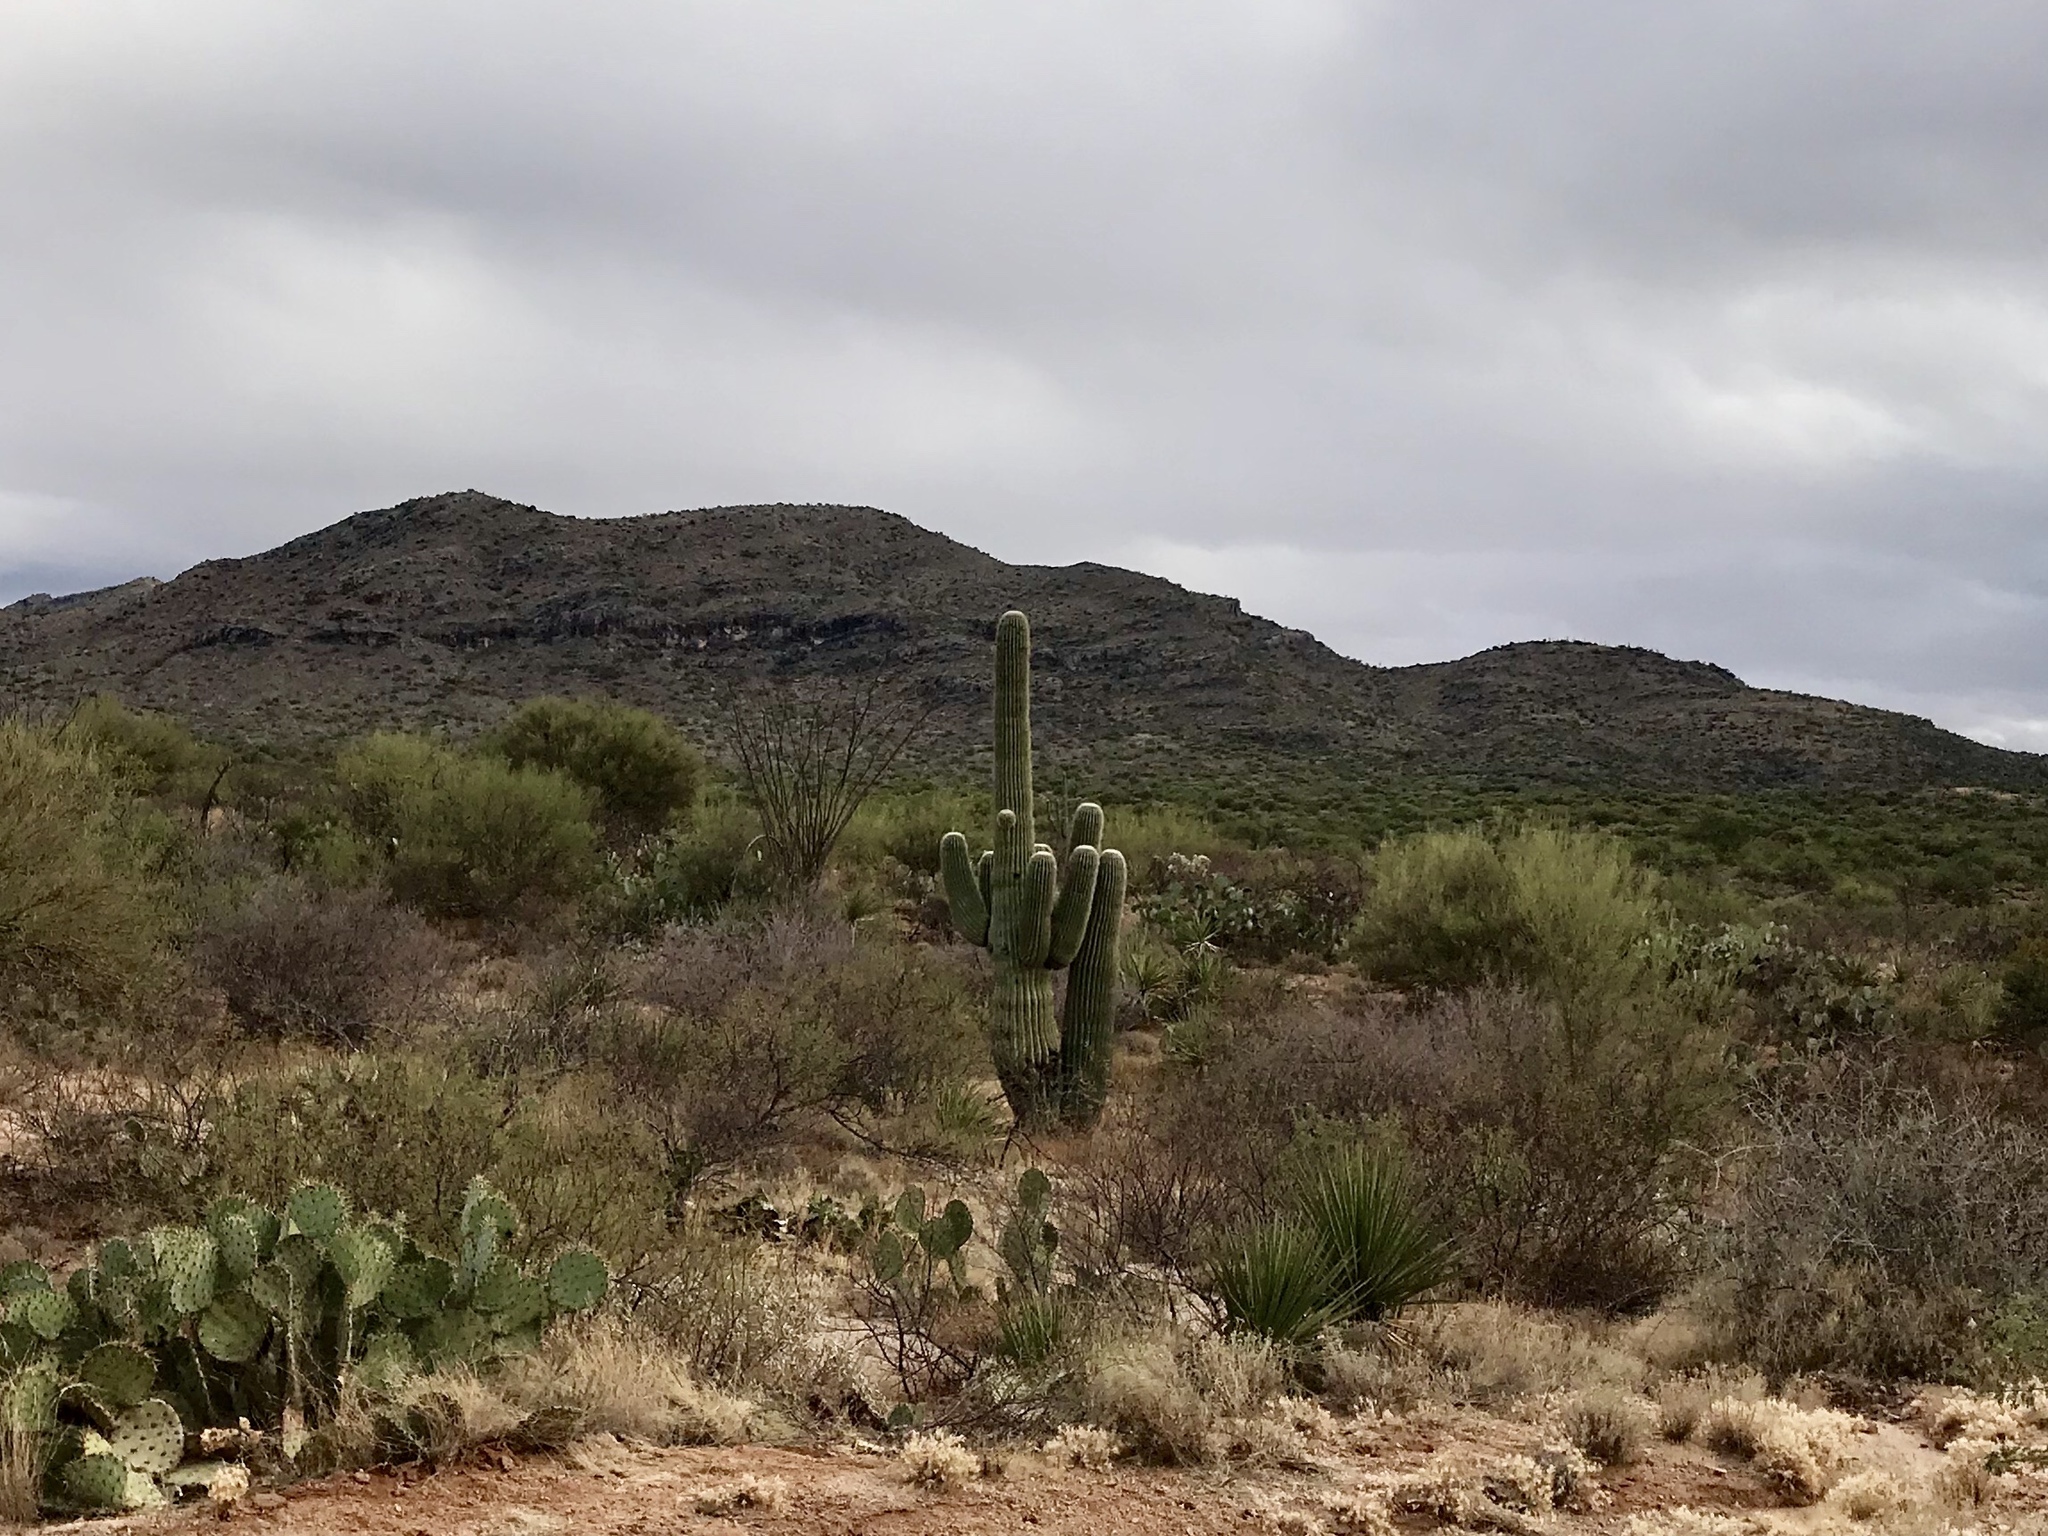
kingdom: Plantae
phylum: Tracheophyta
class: Magnoliopsida
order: Caryophyllales
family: Cactaceae
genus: Carnegiea
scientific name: Carnegiea gigantea
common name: Saguaro
